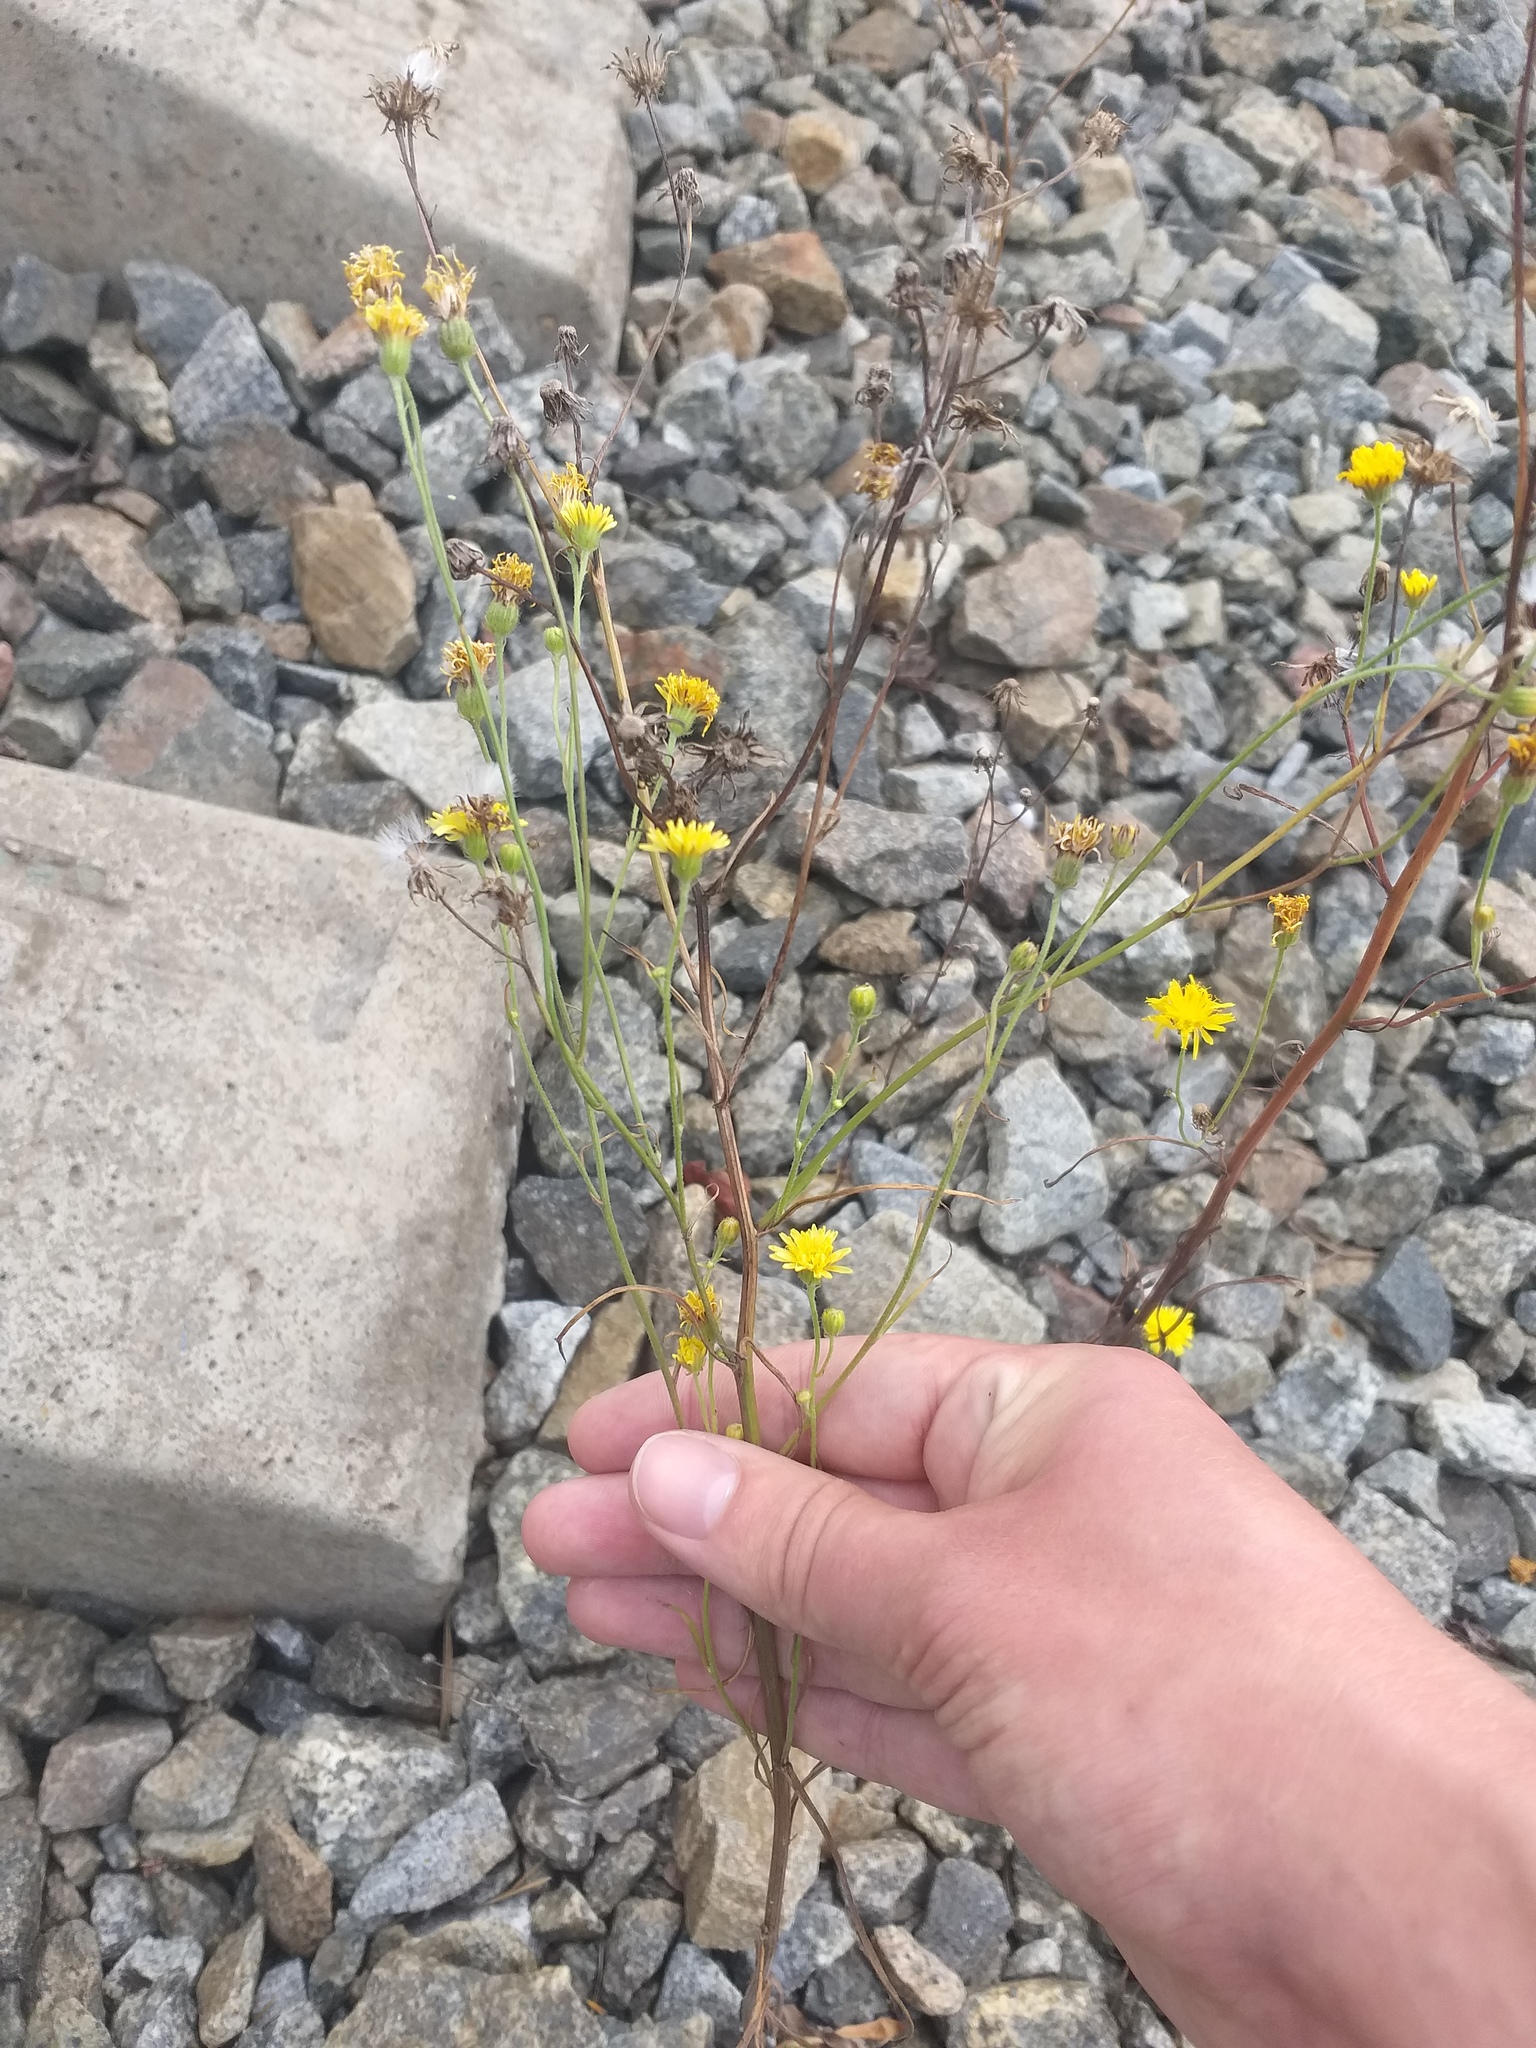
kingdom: Plantae
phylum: Tracheophyta
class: Magnoliopsida
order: Asterales
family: Asteraceae
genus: Crepis
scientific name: Crepis tectorum
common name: Narrow-leaved hawk's-beard
